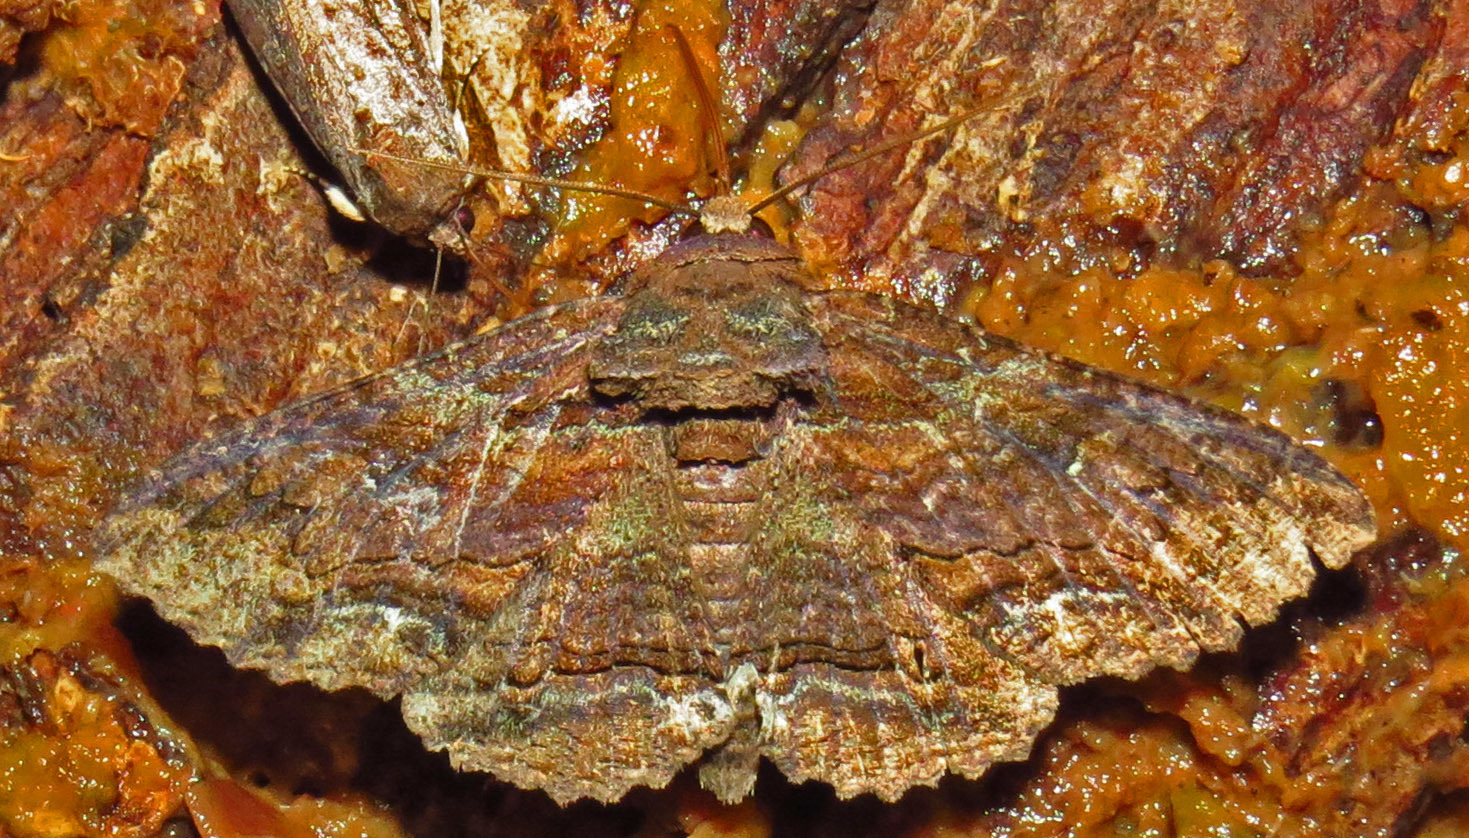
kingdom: Animalia
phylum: Arthropoda
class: Insecta
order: Lepidoptera
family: Erebidae
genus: Zale
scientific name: Zale lunata
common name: Lunate zale moth
